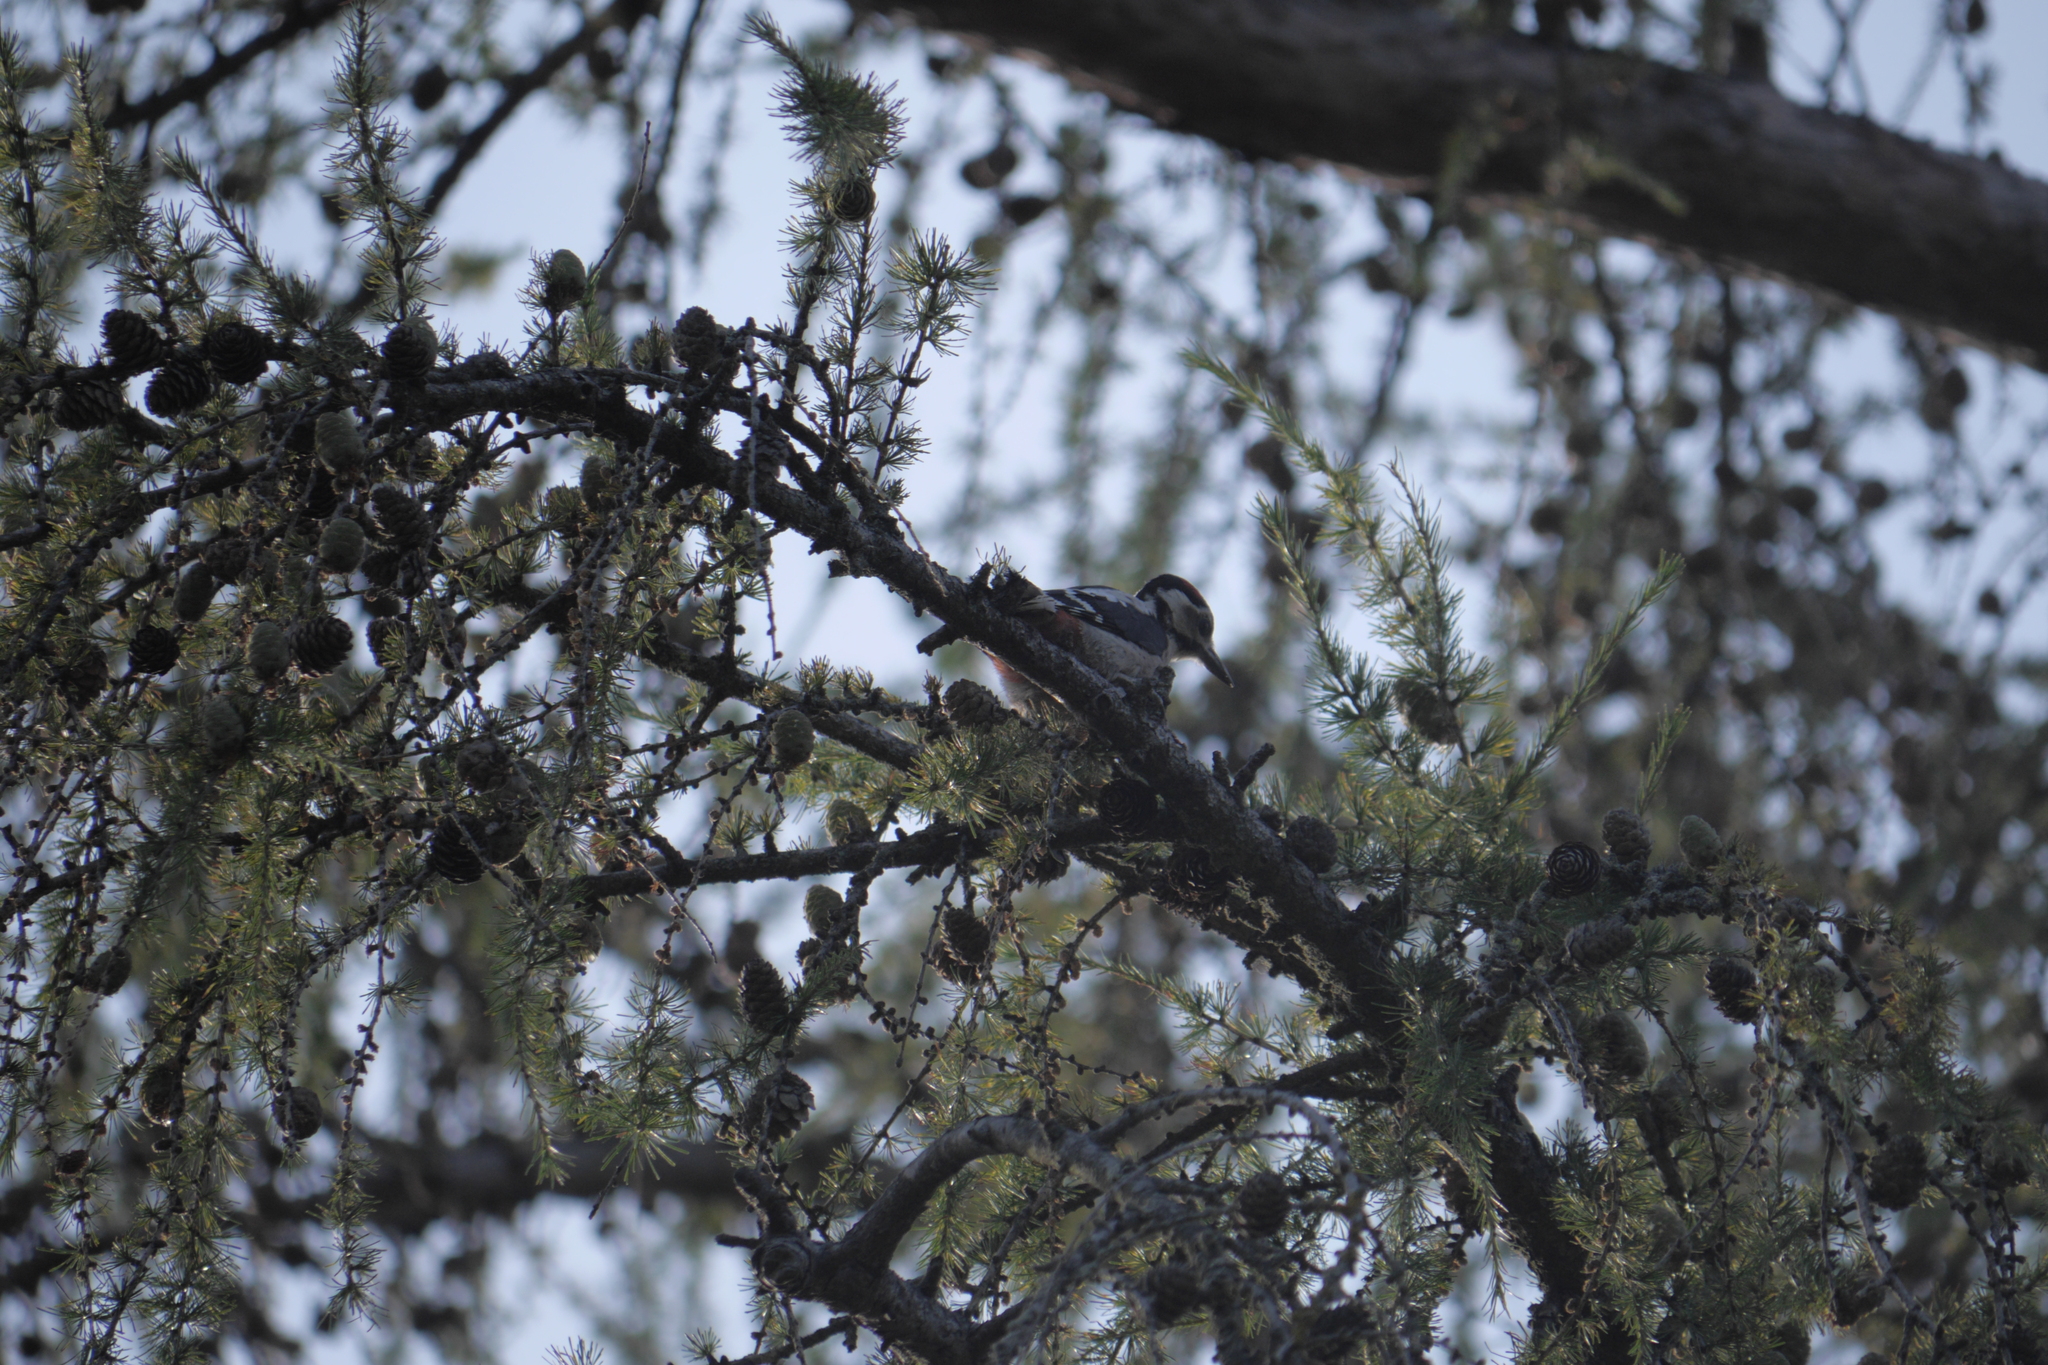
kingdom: Animalia
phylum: Chordata
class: Aves
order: Piciformes
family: Picidae
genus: Dendrocopos
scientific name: Dendrocopos major
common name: Great spotted woodpecker
